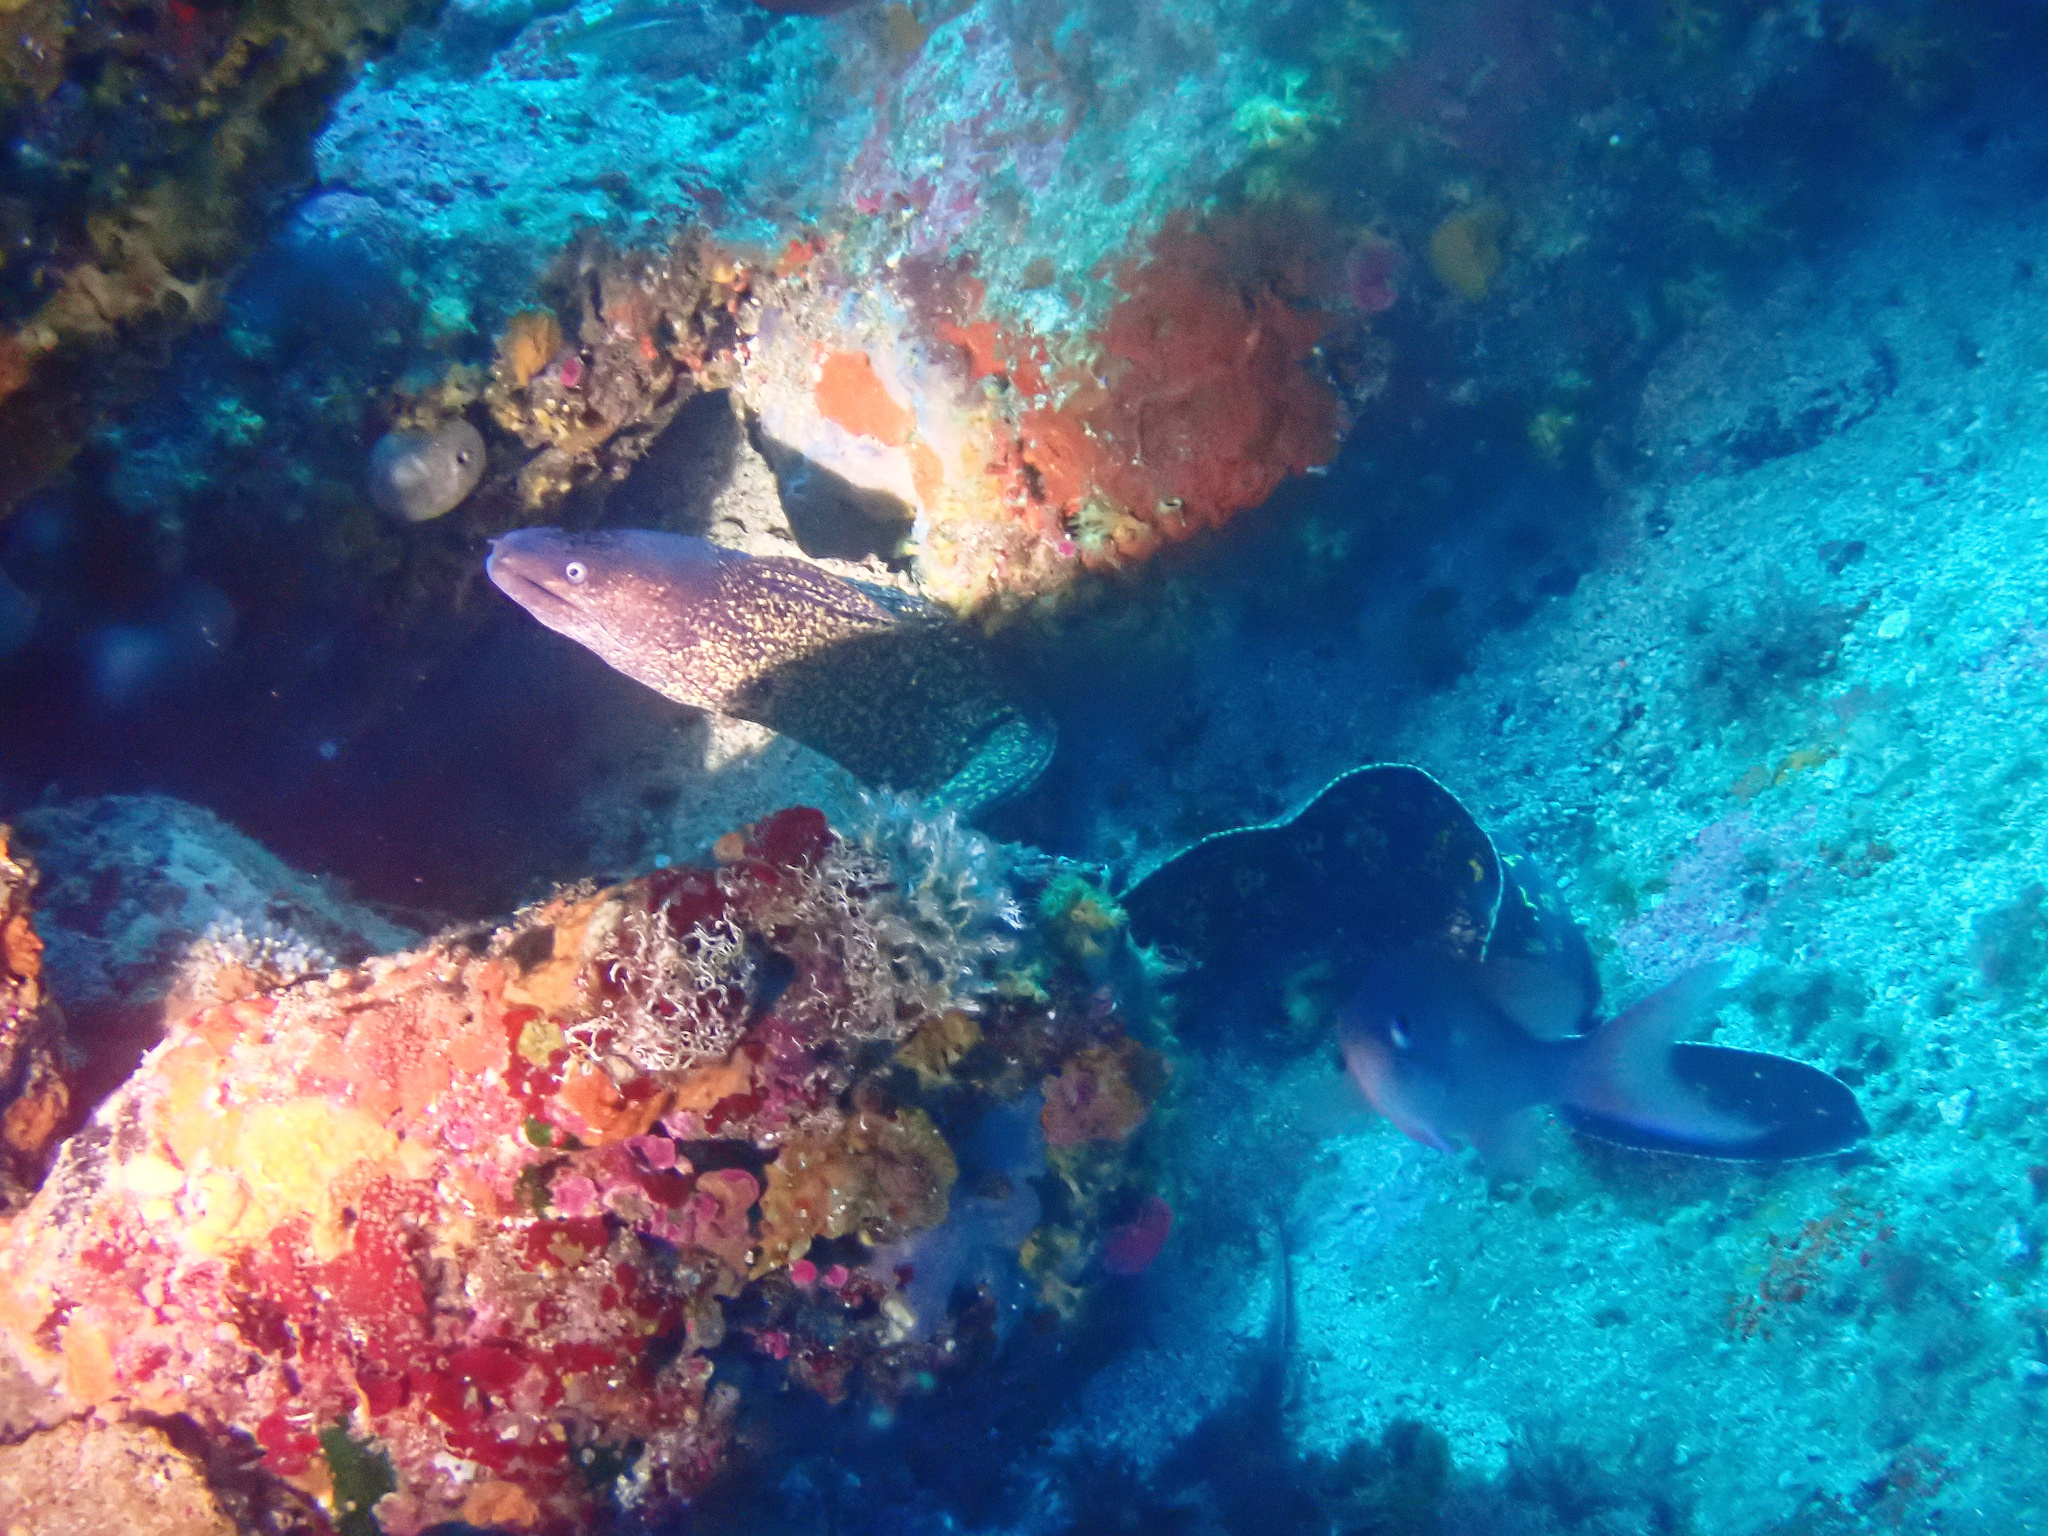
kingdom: Animalia
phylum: Chordata
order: Anguilliformes
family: Muraenidae
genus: Muraena
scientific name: Muraena helena
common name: Mediterranean moray
